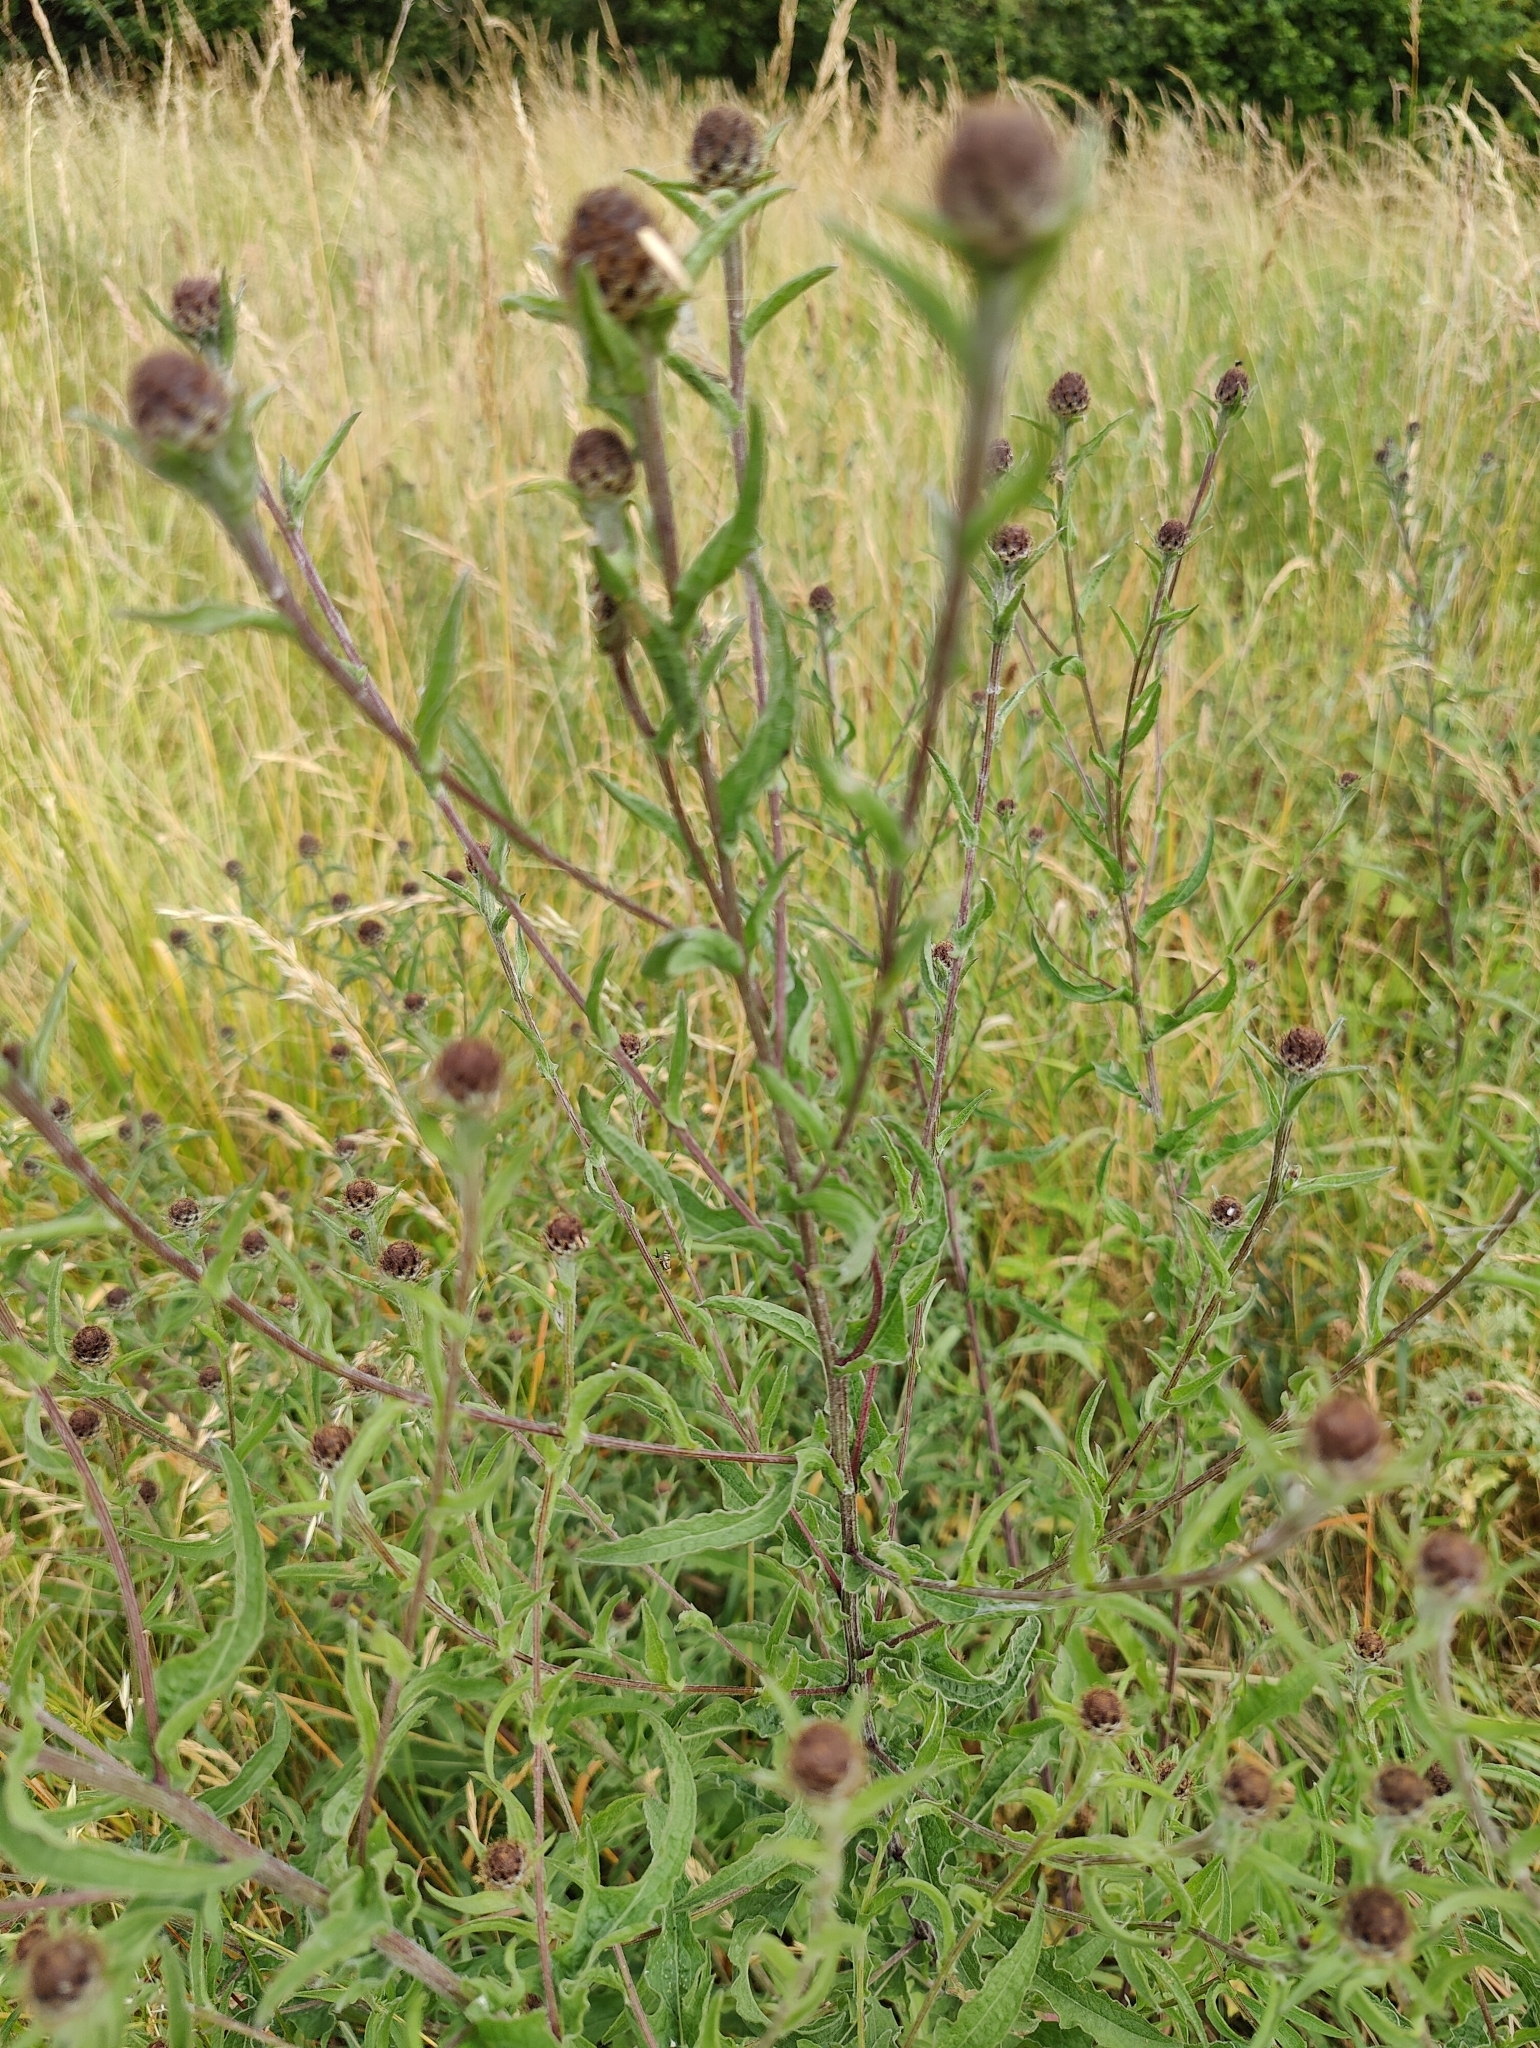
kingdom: Plantae
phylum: Tracheophyta
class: Magnoliopsida
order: Asterales
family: Asteraceae
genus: Centaurea
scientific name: Centaurea nigra
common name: Lesser knapweed
